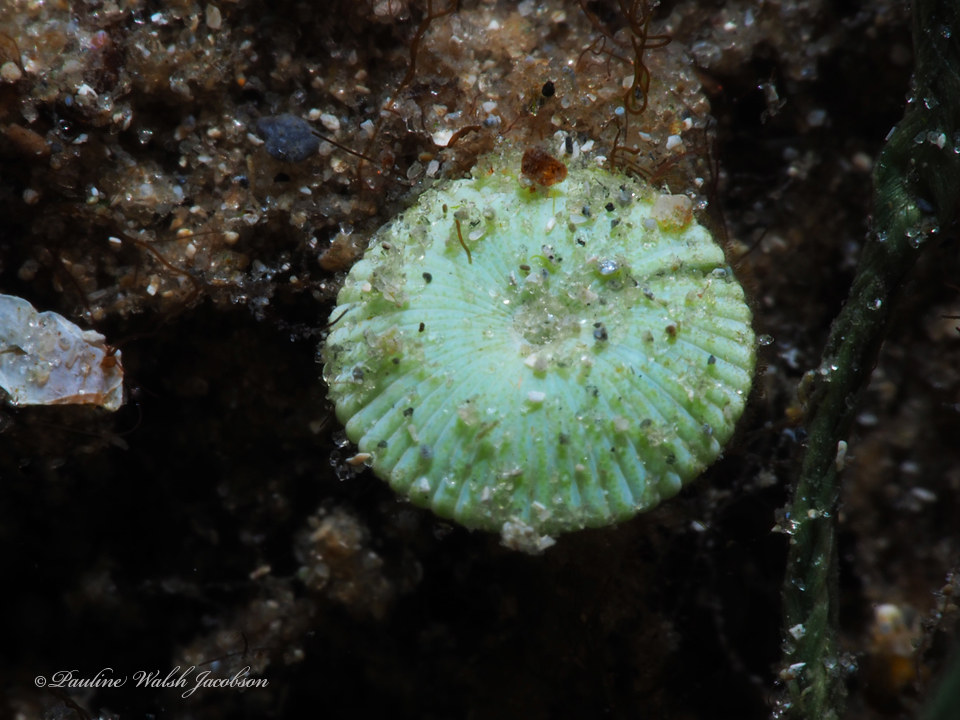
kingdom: Plantae
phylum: Chlorophyta
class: Ulvophyceae
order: Dasycladales
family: Polyphysaceae
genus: Acetabularia
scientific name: Acetabularia crenulata
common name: White mermaid's wine glass
